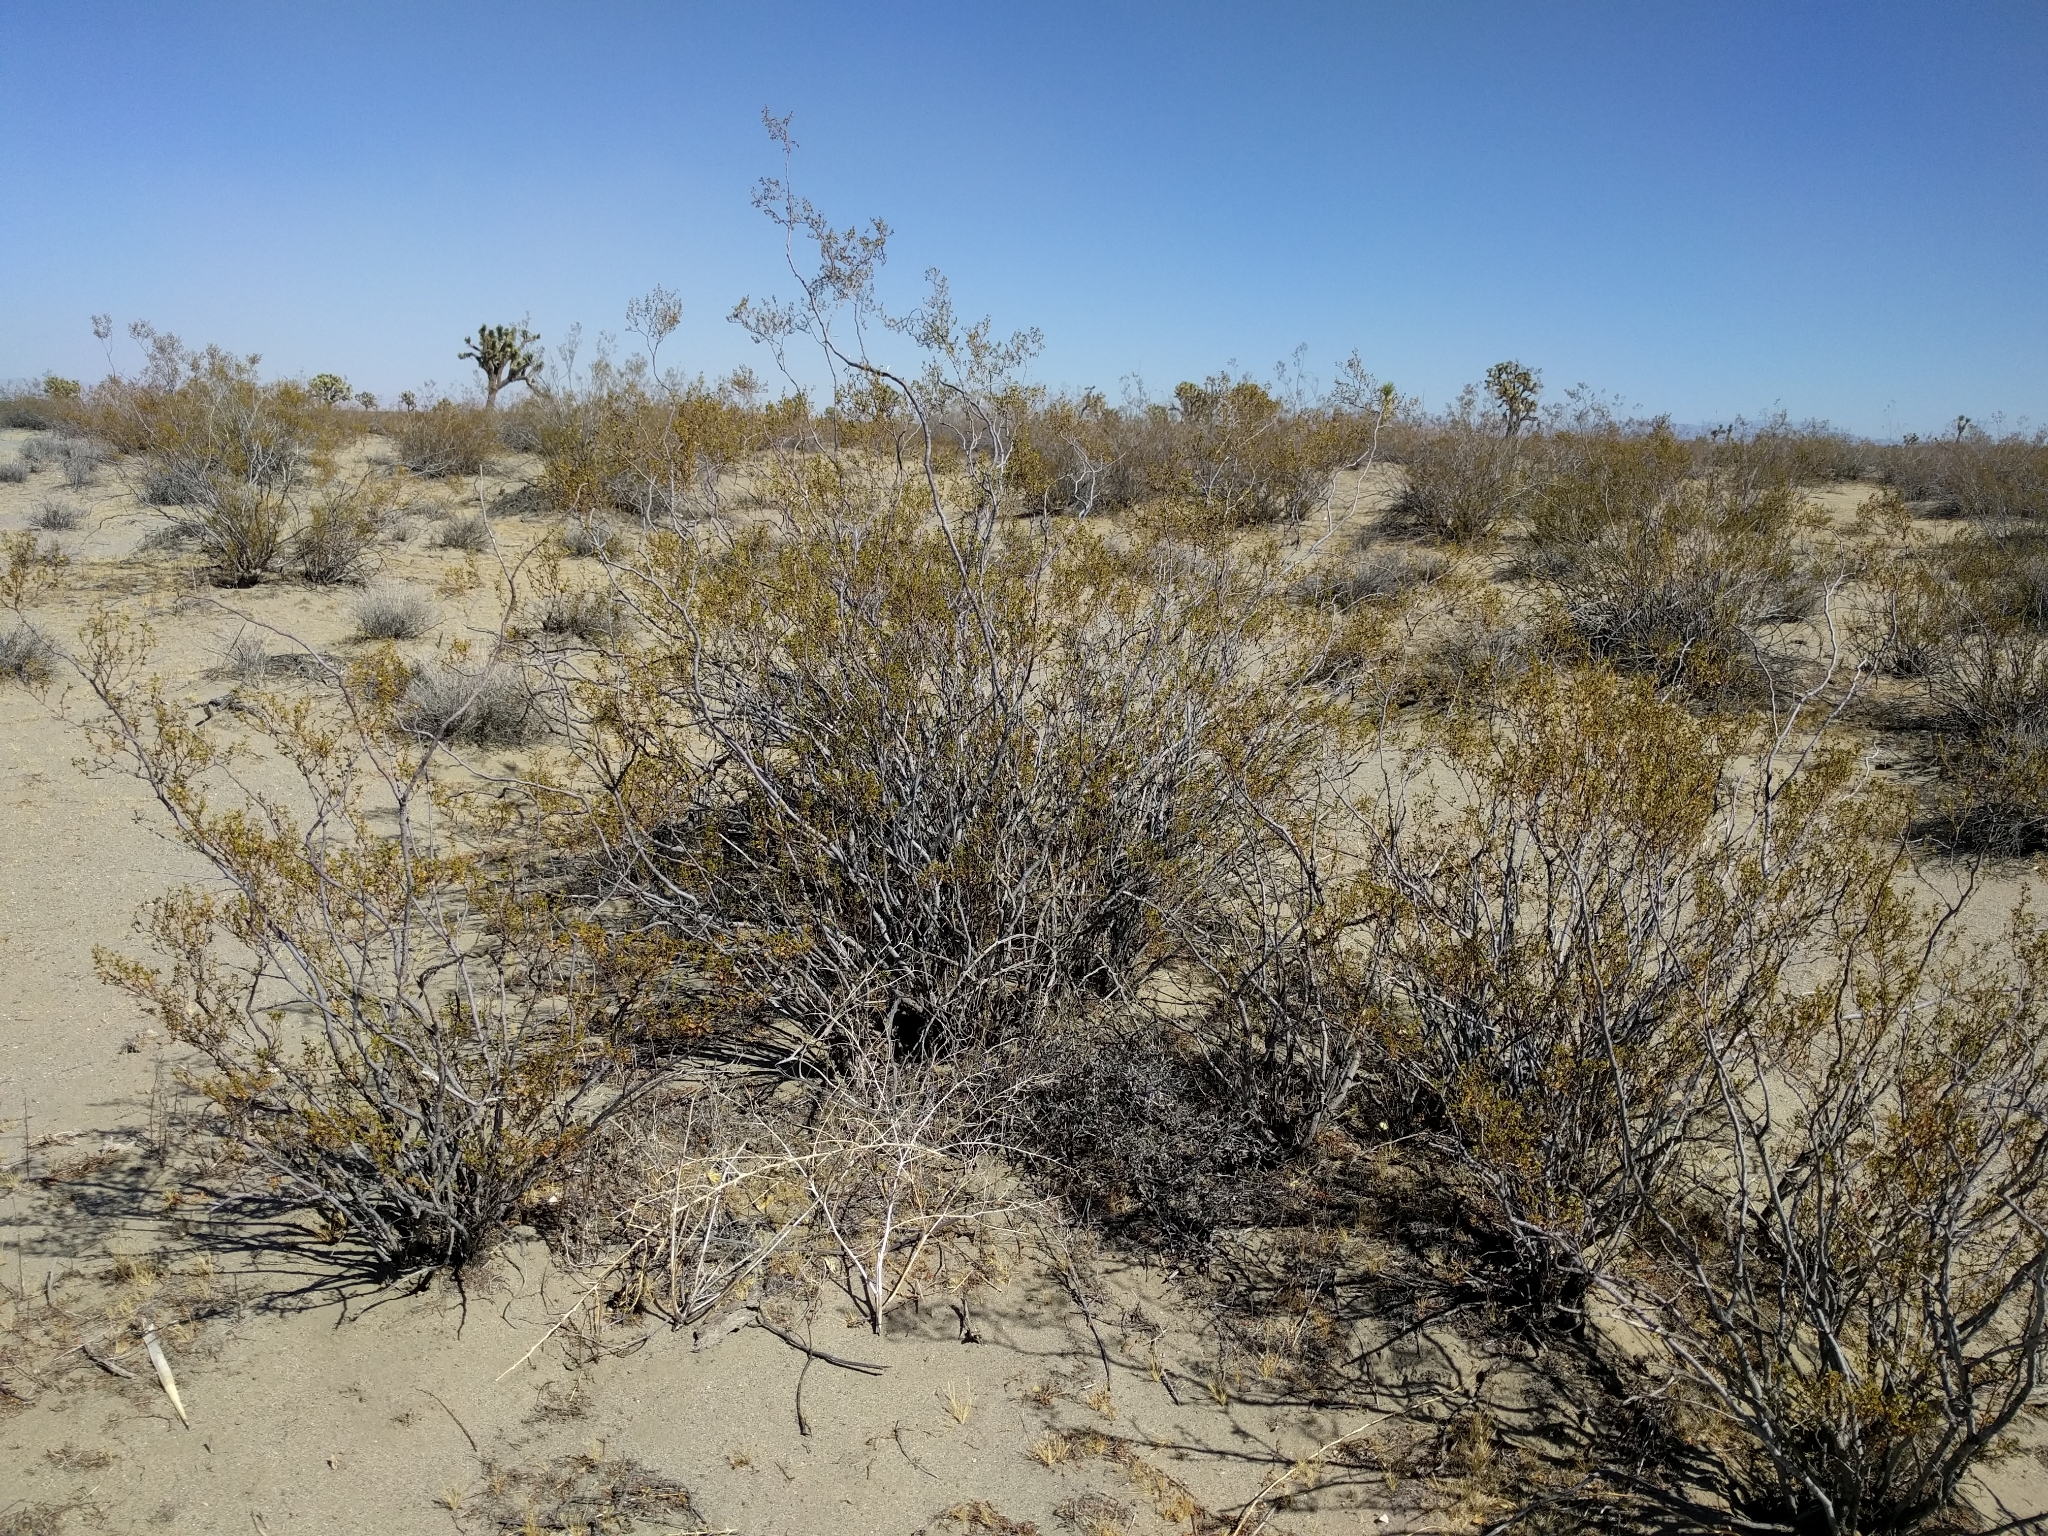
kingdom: Plantae
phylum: Tracheophyta
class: Magnoliopsida
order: Zygophyllales
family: Zygophyllaceae
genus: Larrea
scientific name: Larrea tridentata
